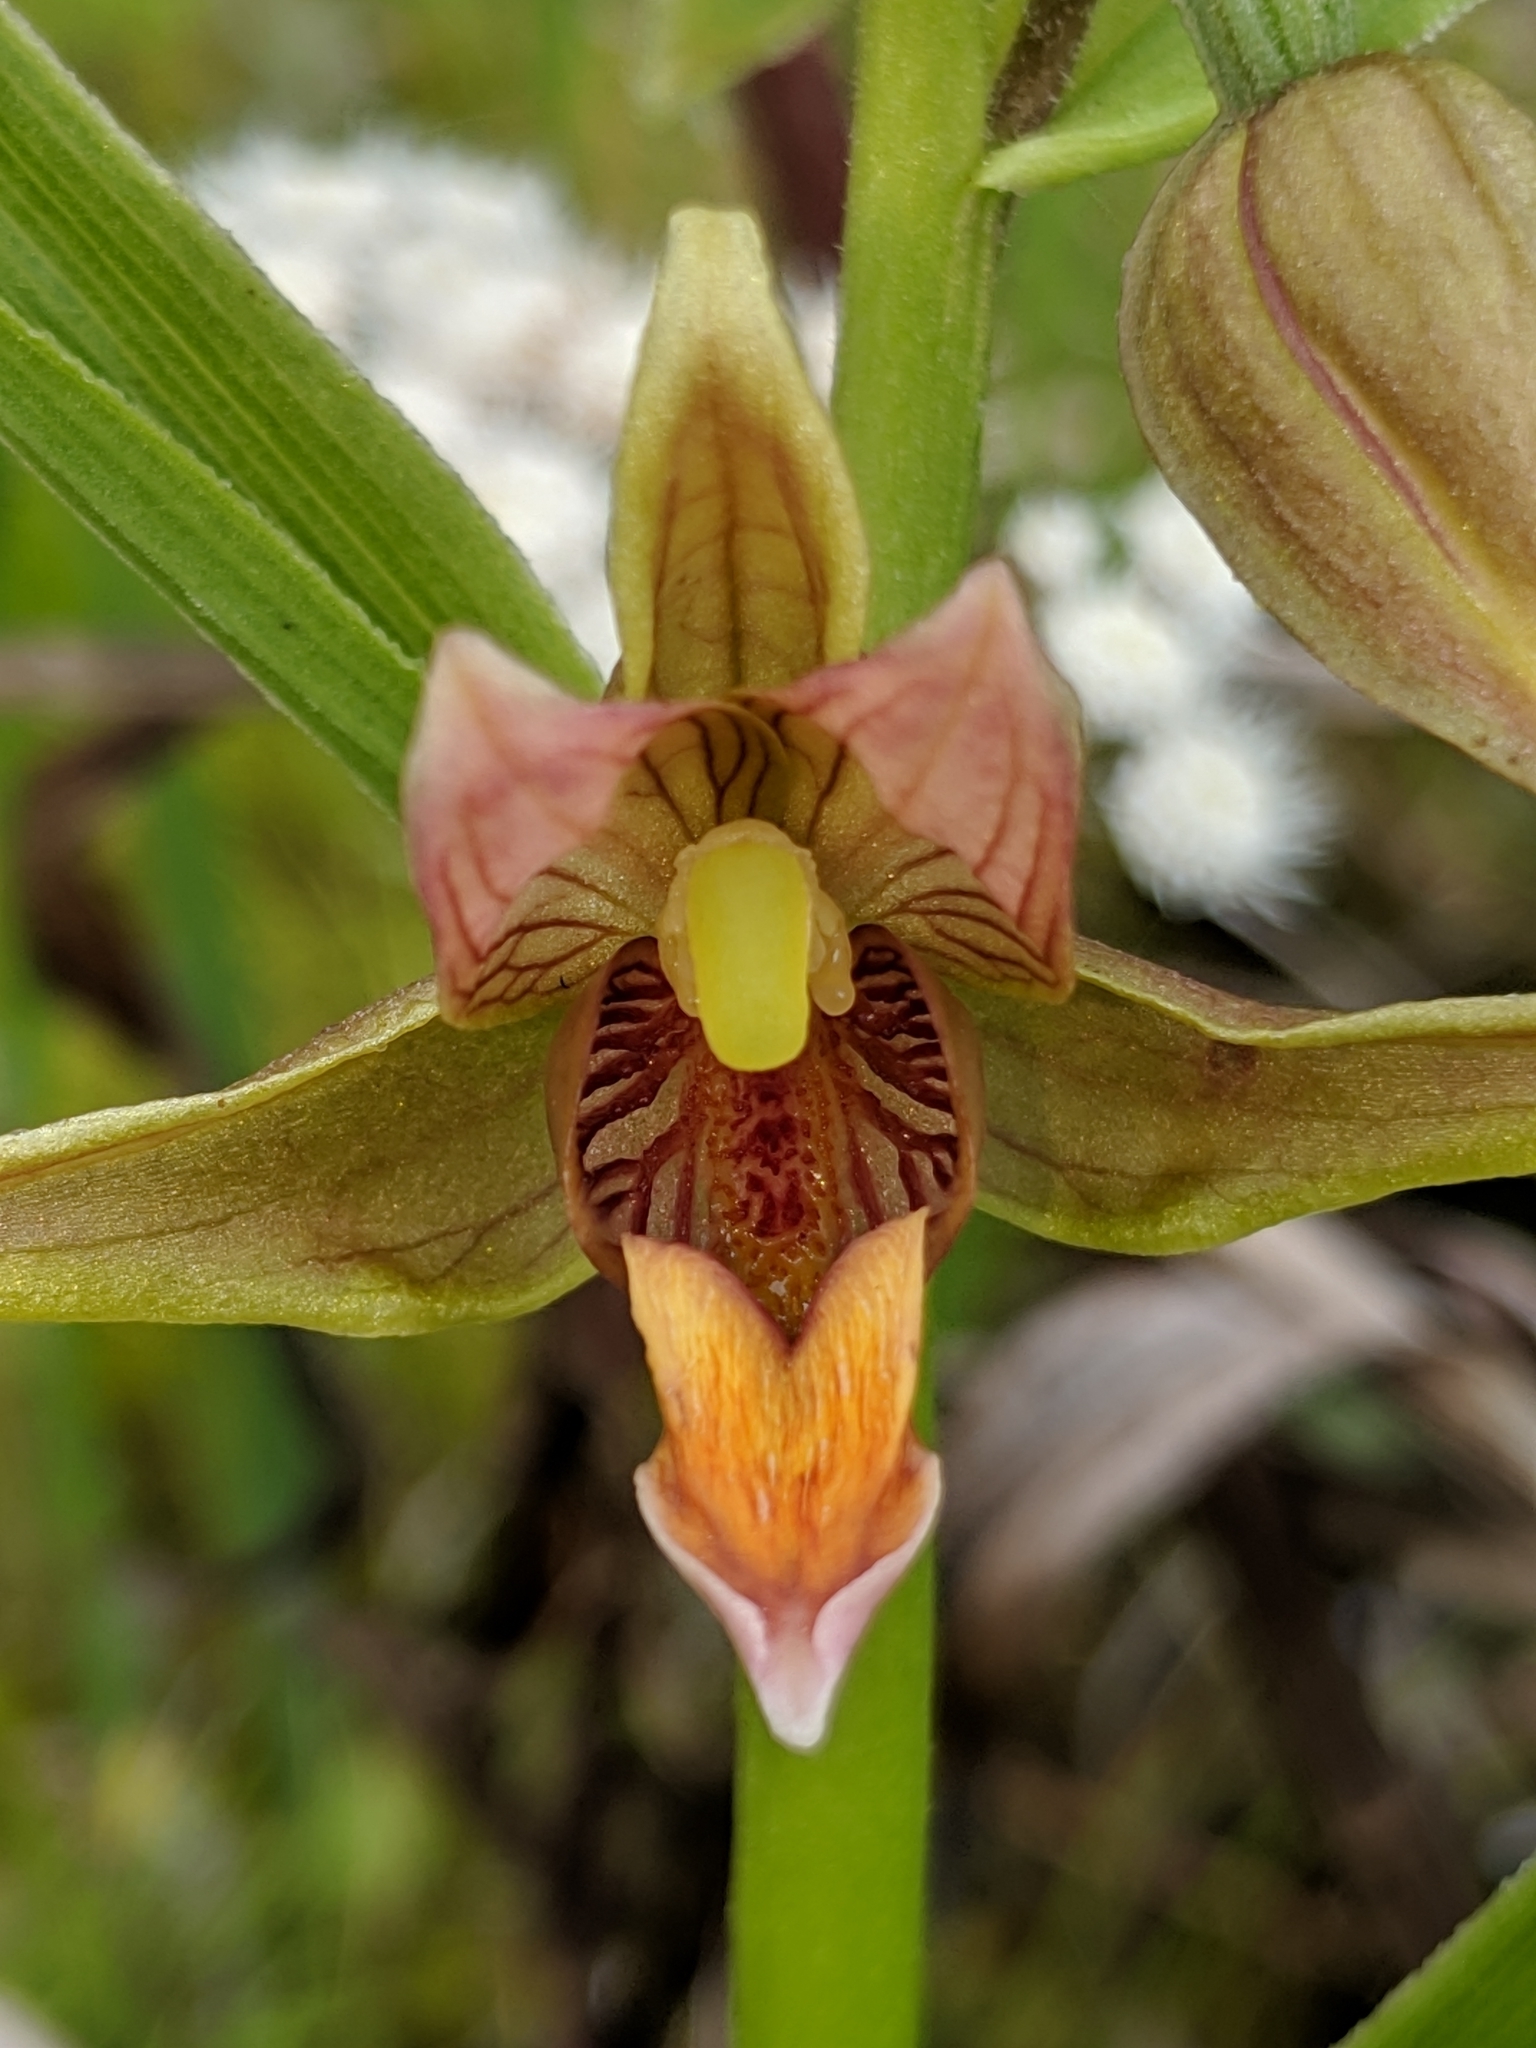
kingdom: Plantae
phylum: Tracheophyta
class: Liliopsida
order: Asparagales
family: Orchidaceae
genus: Epipactis
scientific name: Epipactis gigantea
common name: Chatterbox
